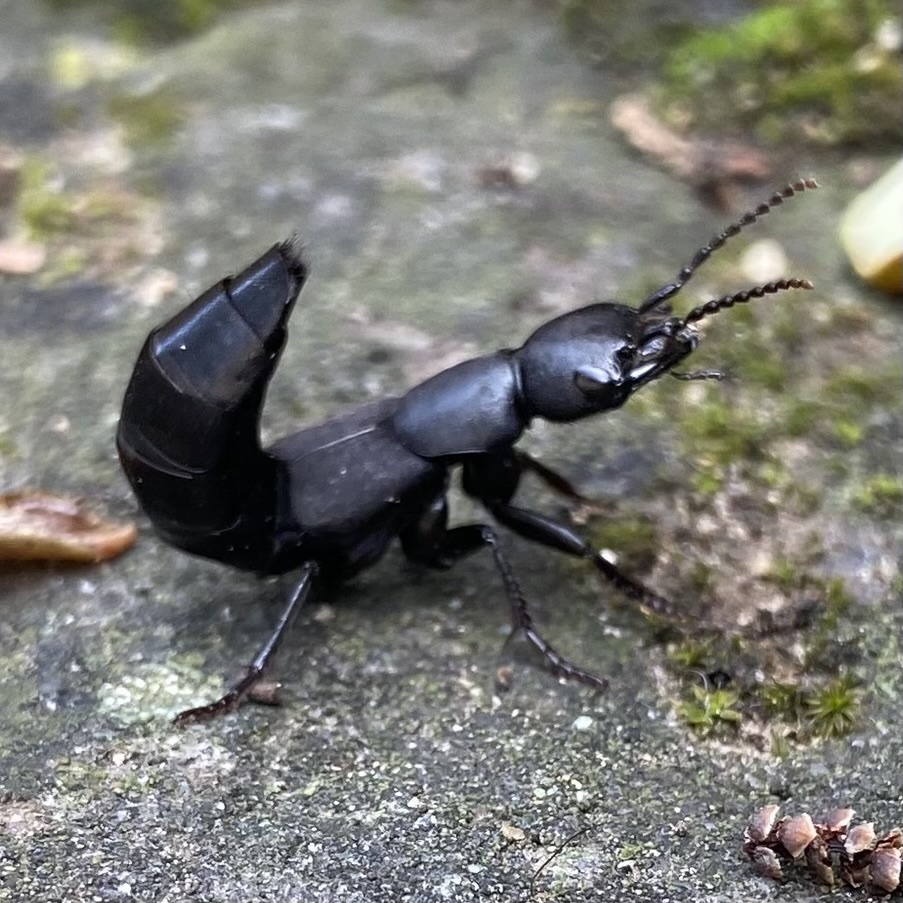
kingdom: Animalia
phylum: Arthropoda
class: Insecta
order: Coleoptera
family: Staphylinidae
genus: Ocypus
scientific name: Ocypus olens
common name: Devil's coach-horse
